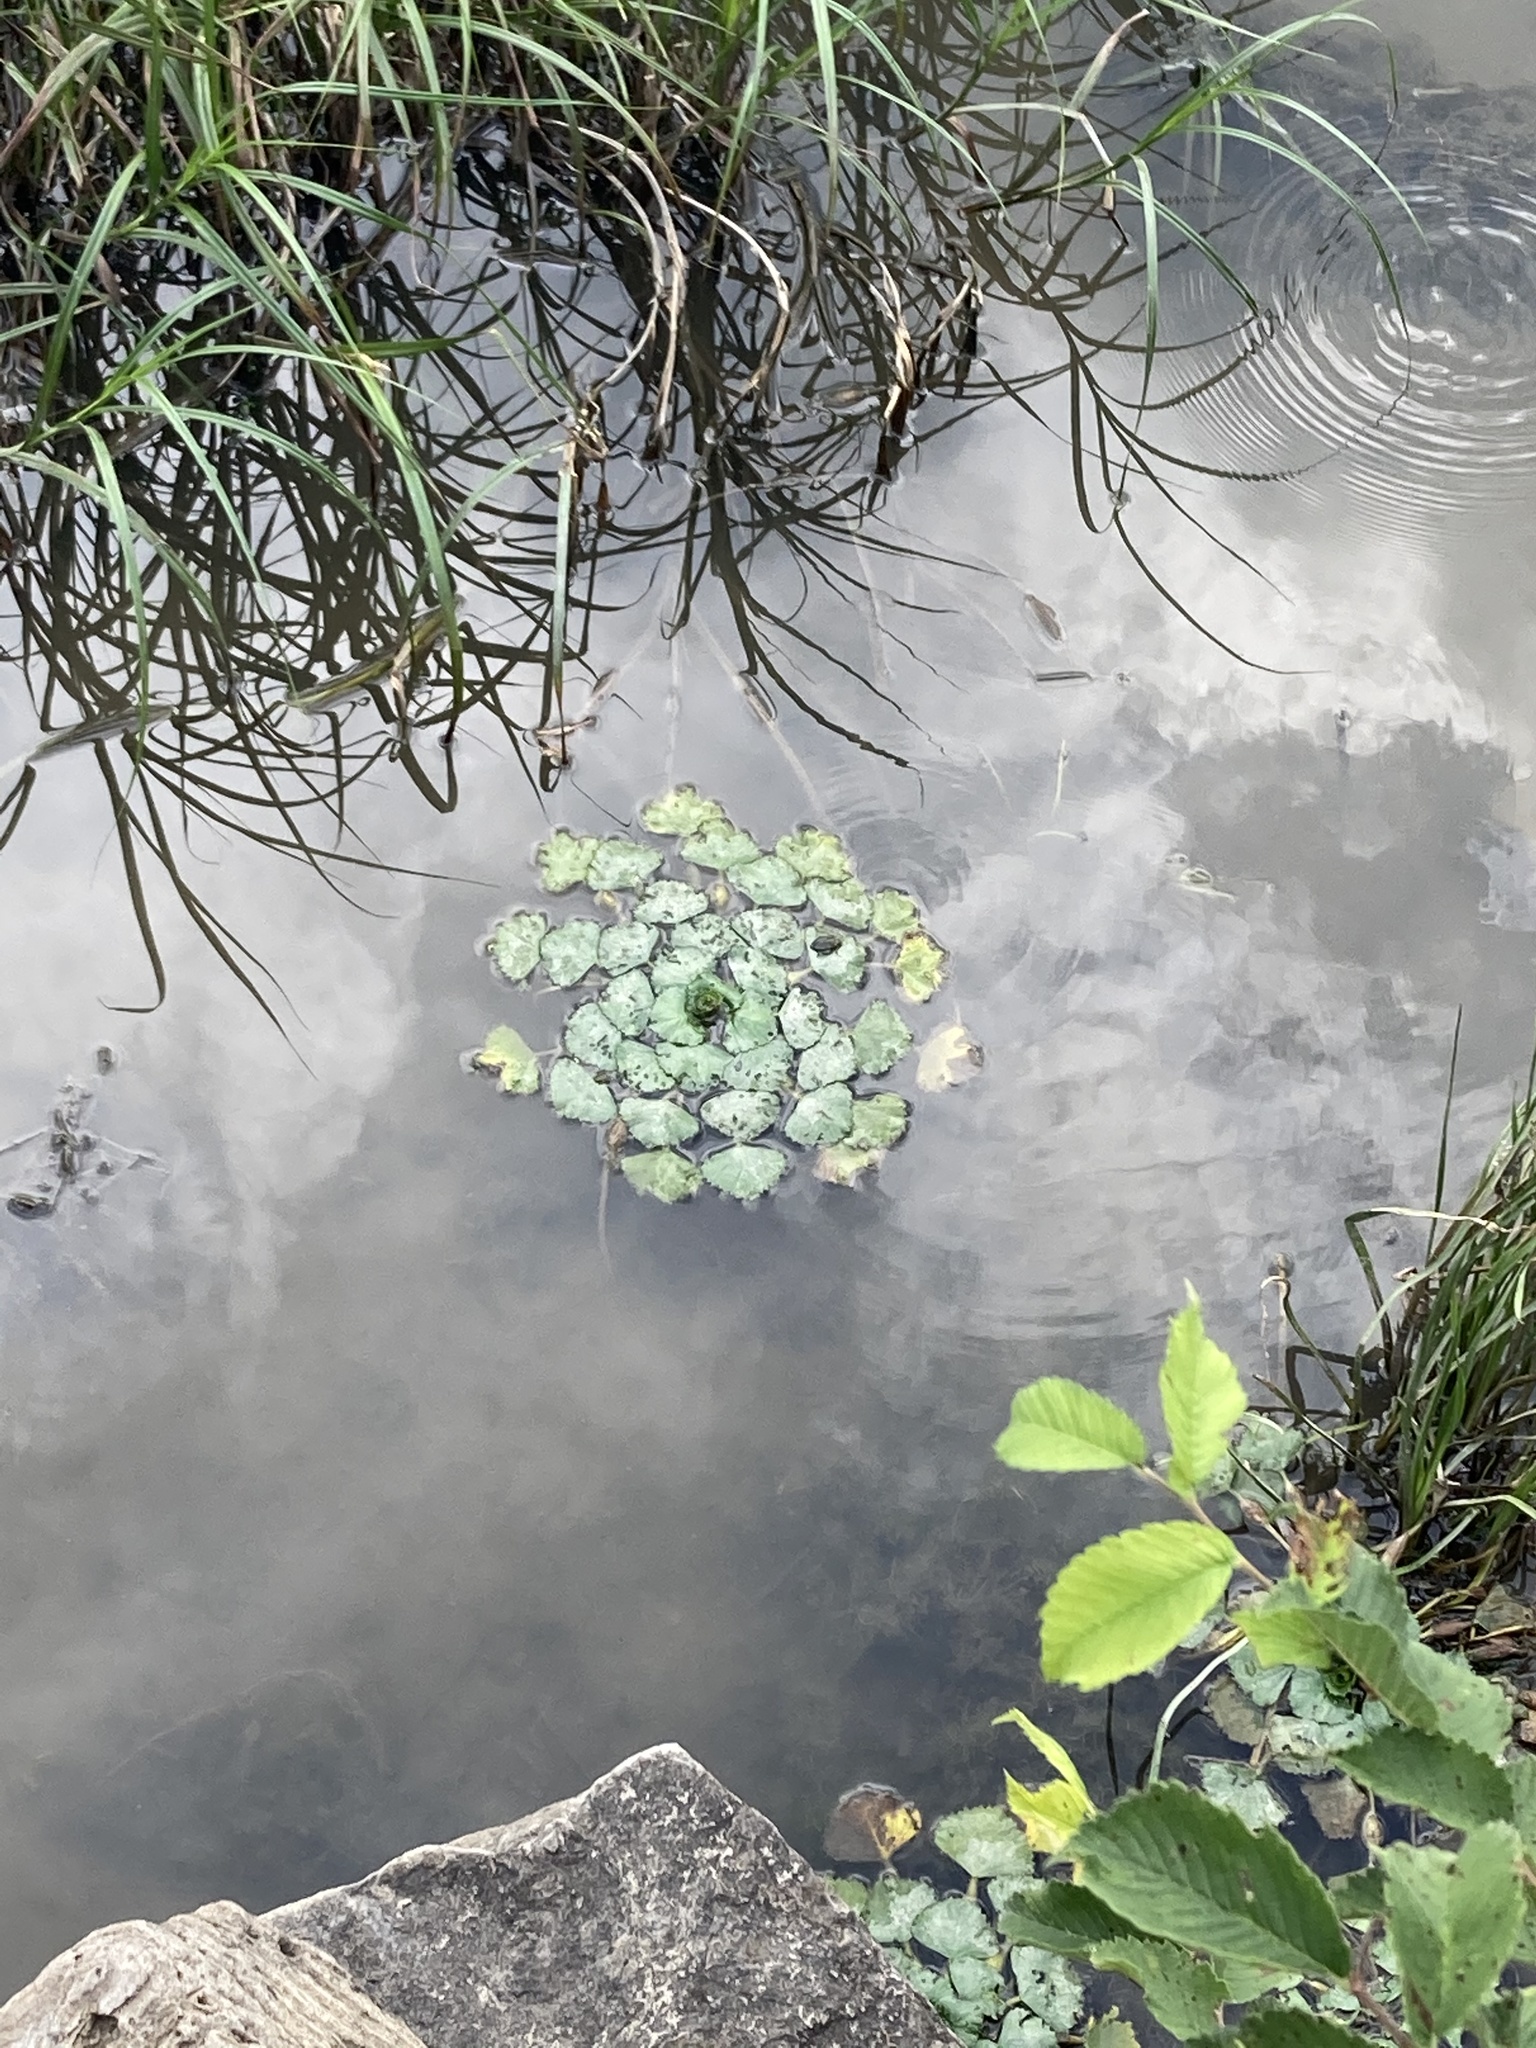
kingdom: Plantae
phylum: Tracheophyta
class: Magnoliopsida
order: Myrtales
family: Lythraceae
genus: Trapa
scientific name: Trapa natans
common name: Water chestnut
